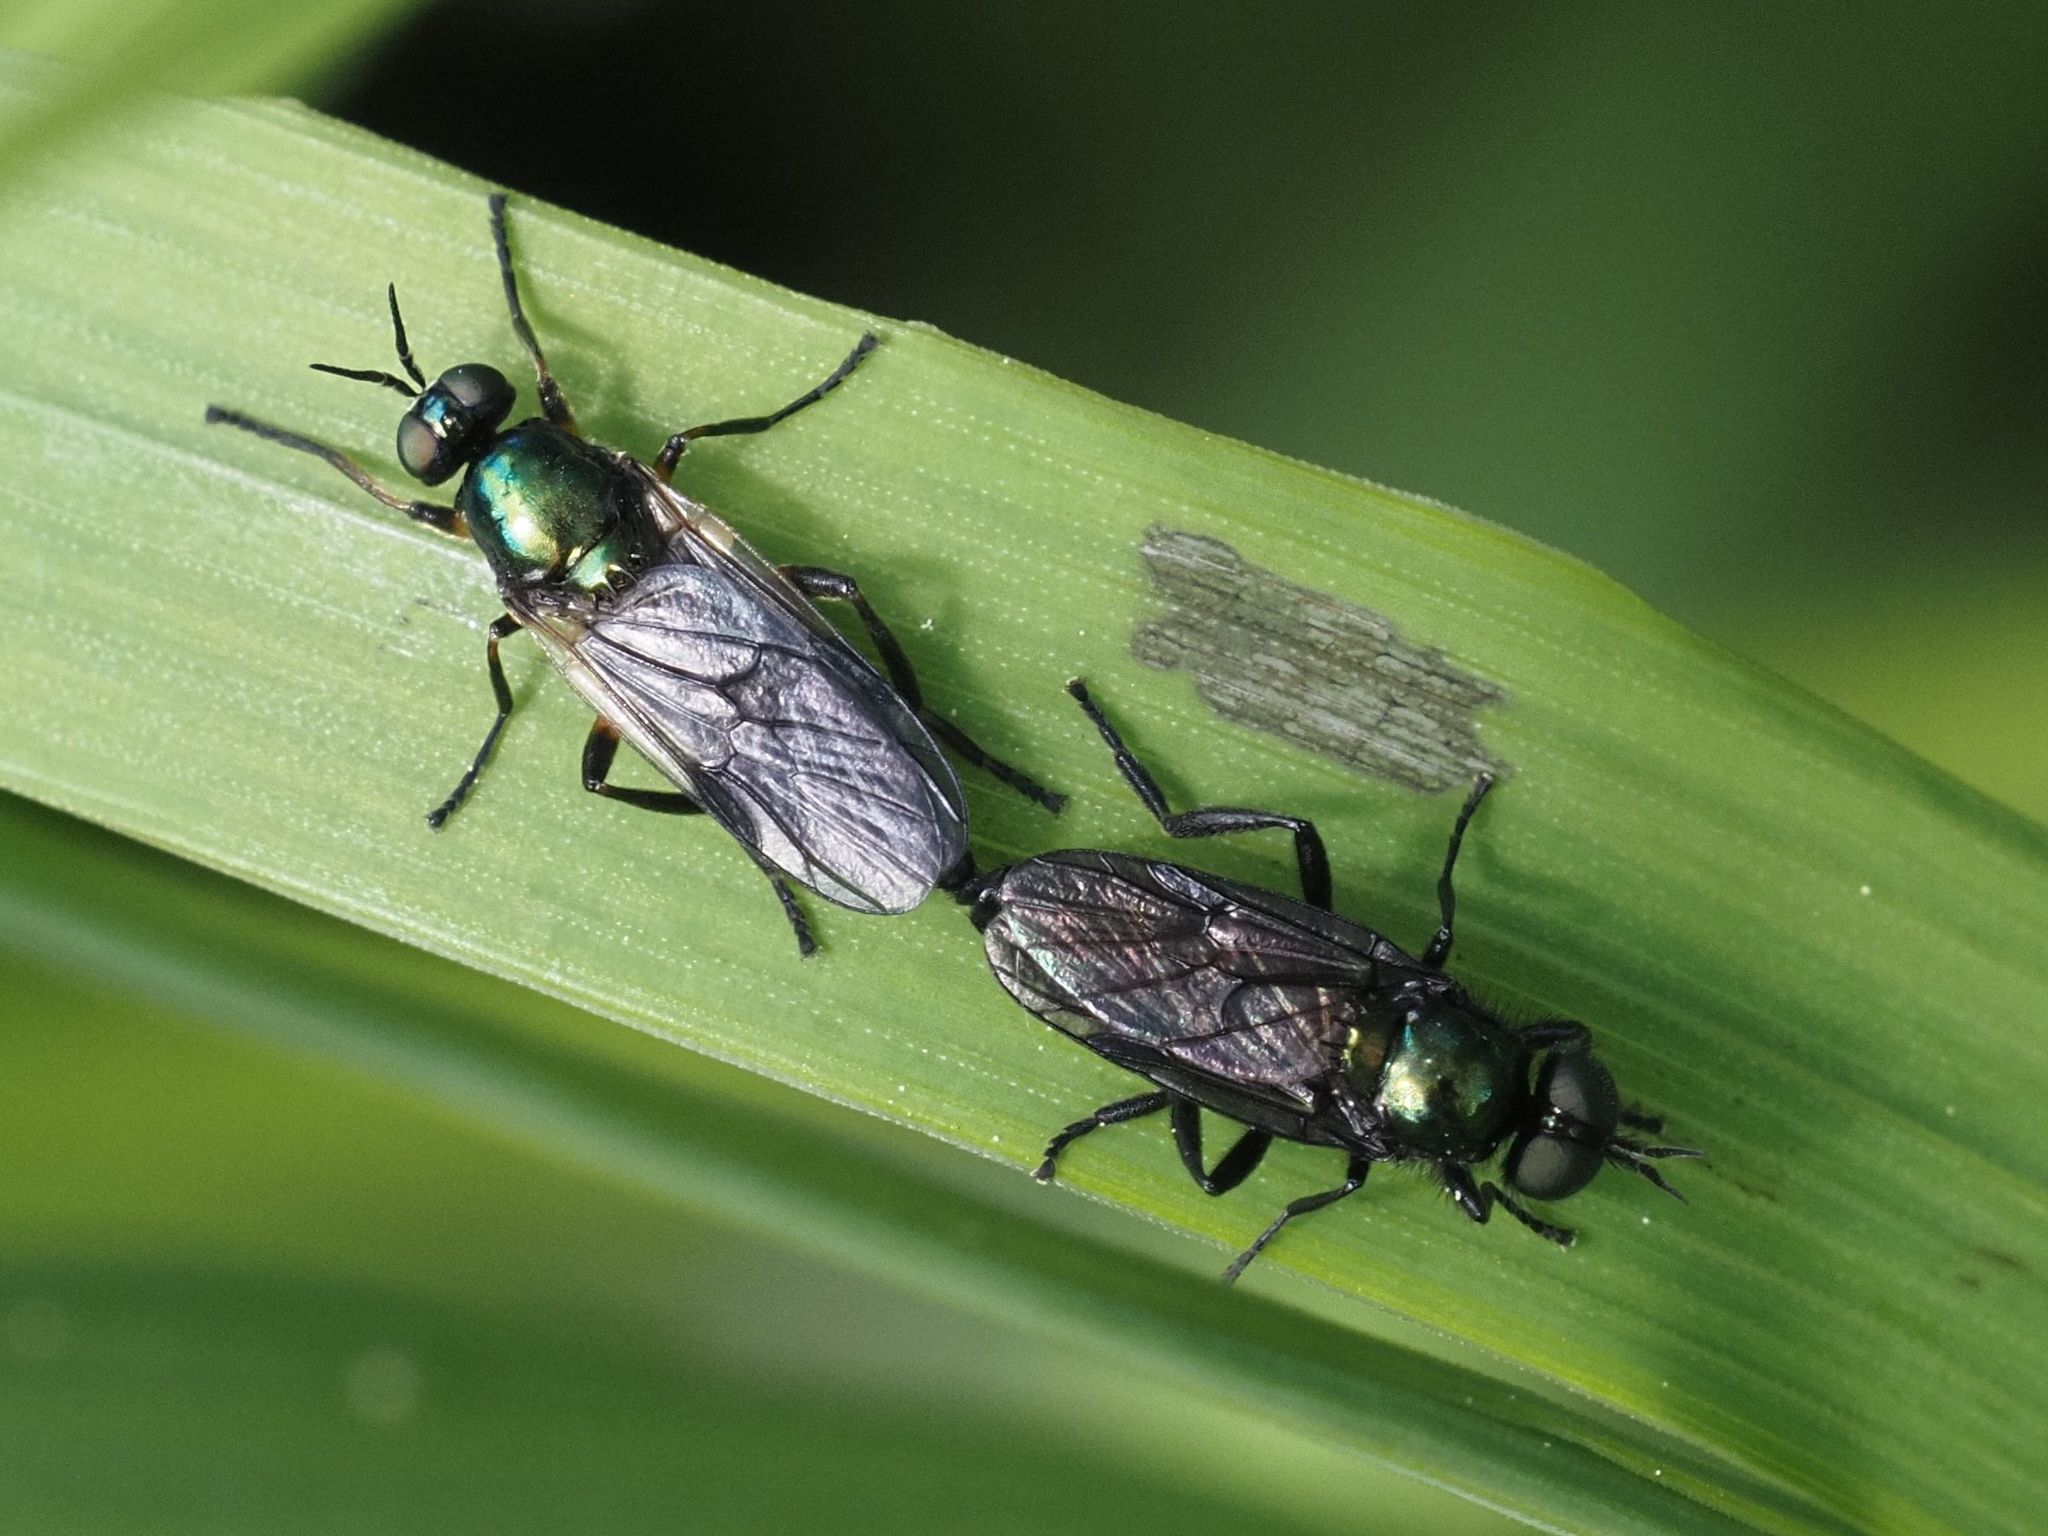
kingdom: Animalia
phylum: Arthropoda
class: Insecta
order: Diptera
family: Stratiomyidae
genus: Actina
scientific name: Actina chalybea
